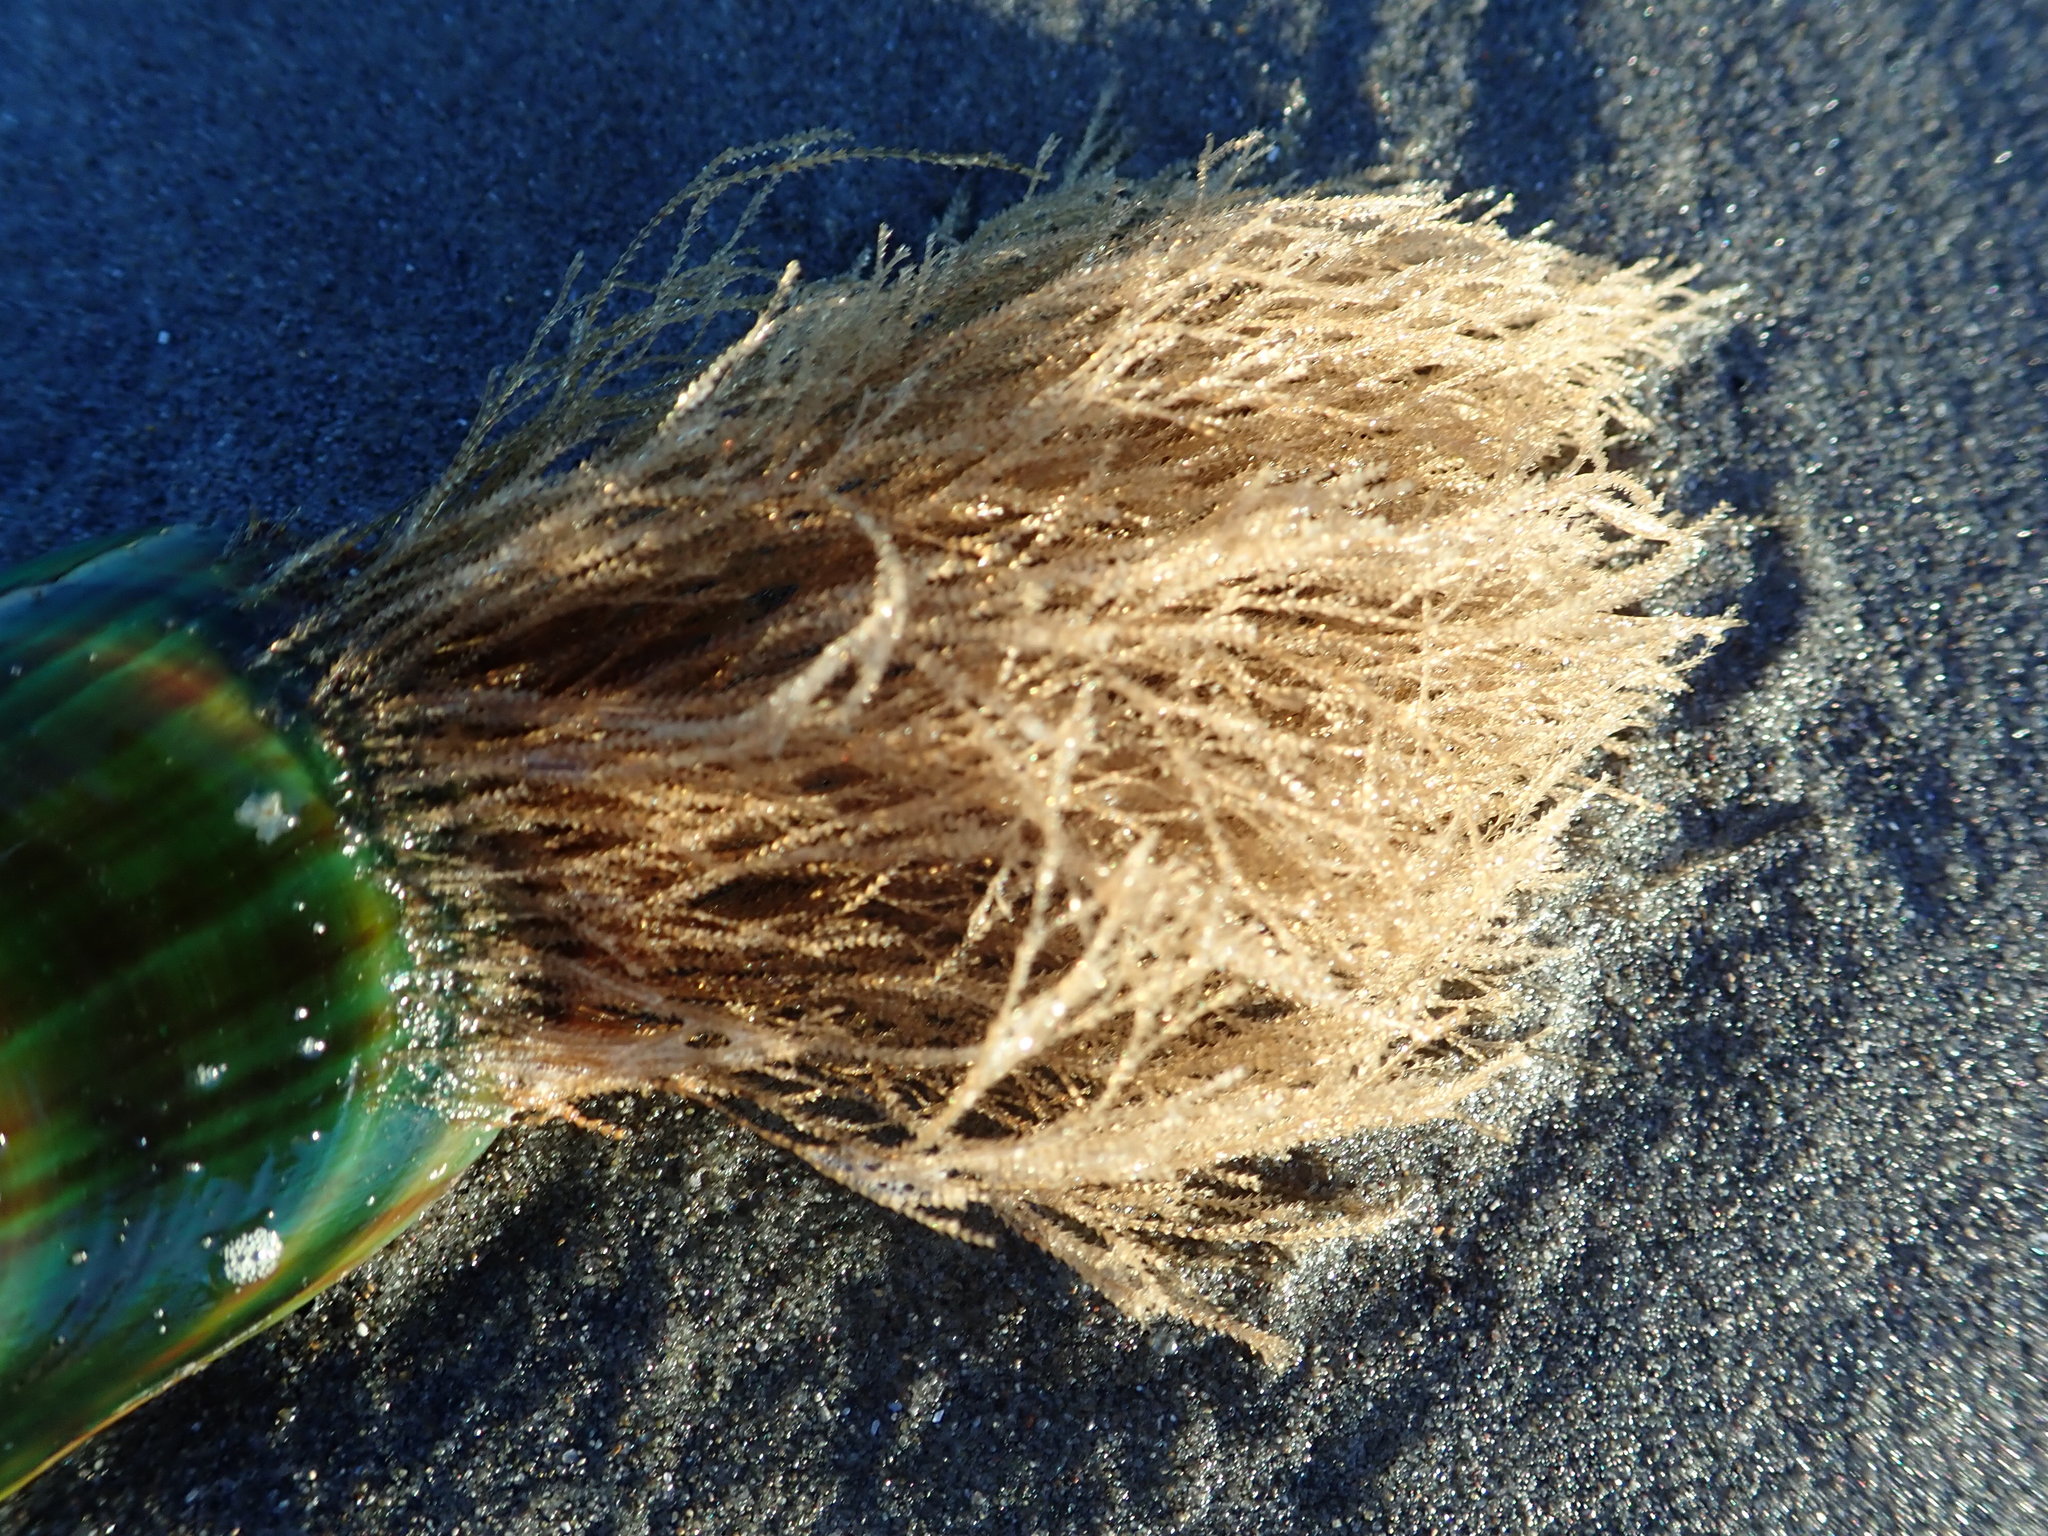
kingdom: Animalia
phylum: Cnidaria
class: Hydrozoa
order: Leptothecata
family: Sertulariidae
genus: Amphisbetia
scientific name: Amphisbetia bispinosa
